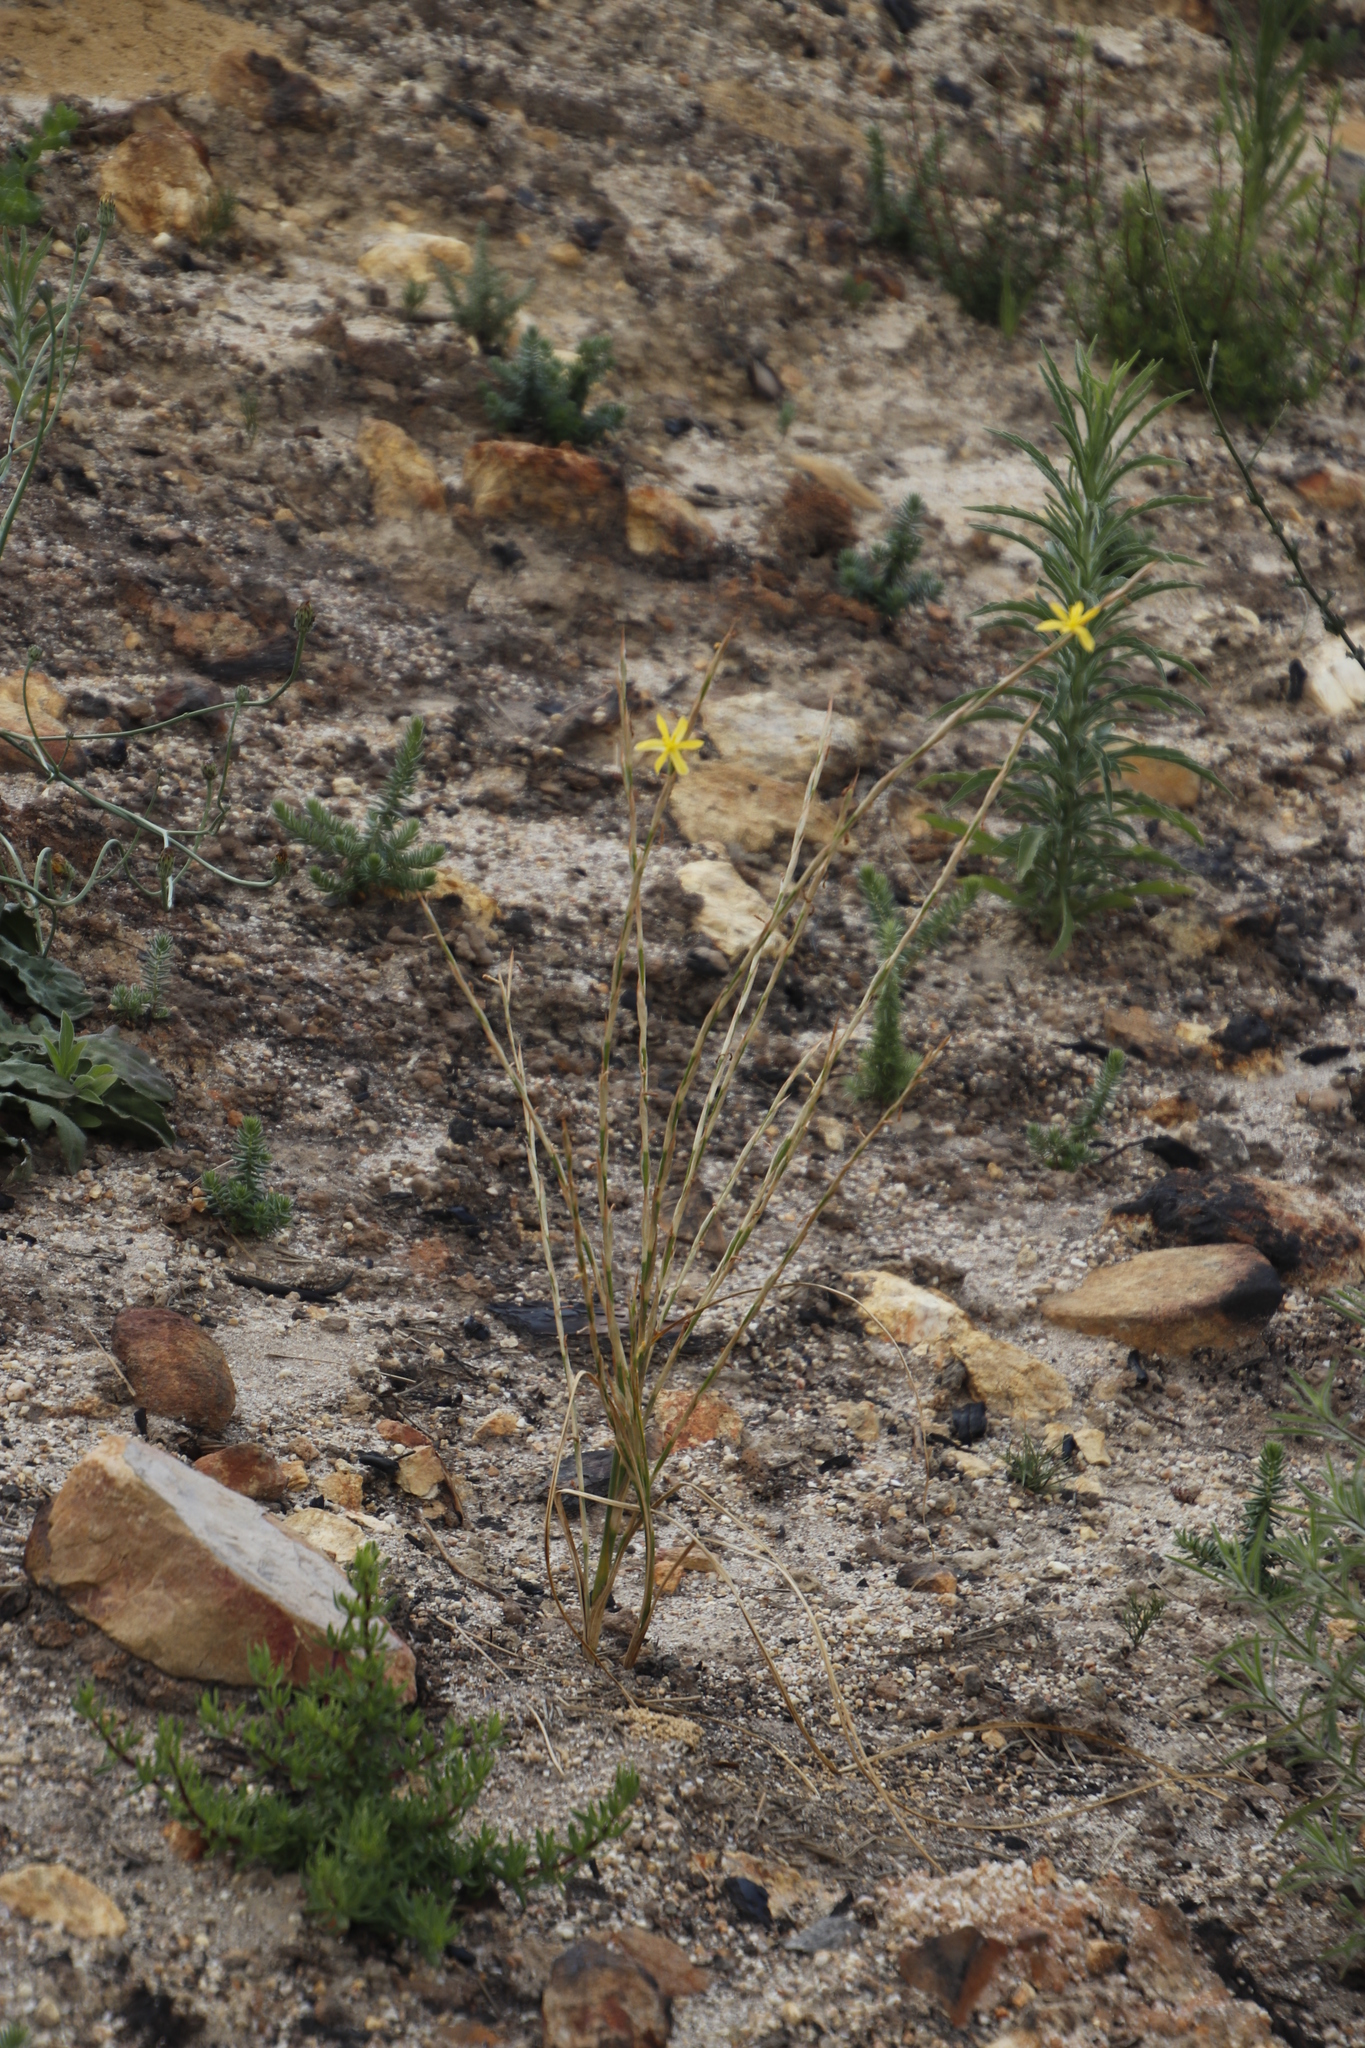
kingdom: Plantae
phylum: Tracheophyta
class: Liliopsida
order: Asparagales
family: Iridaceae
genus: Moraea
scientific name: Moraea virgata
